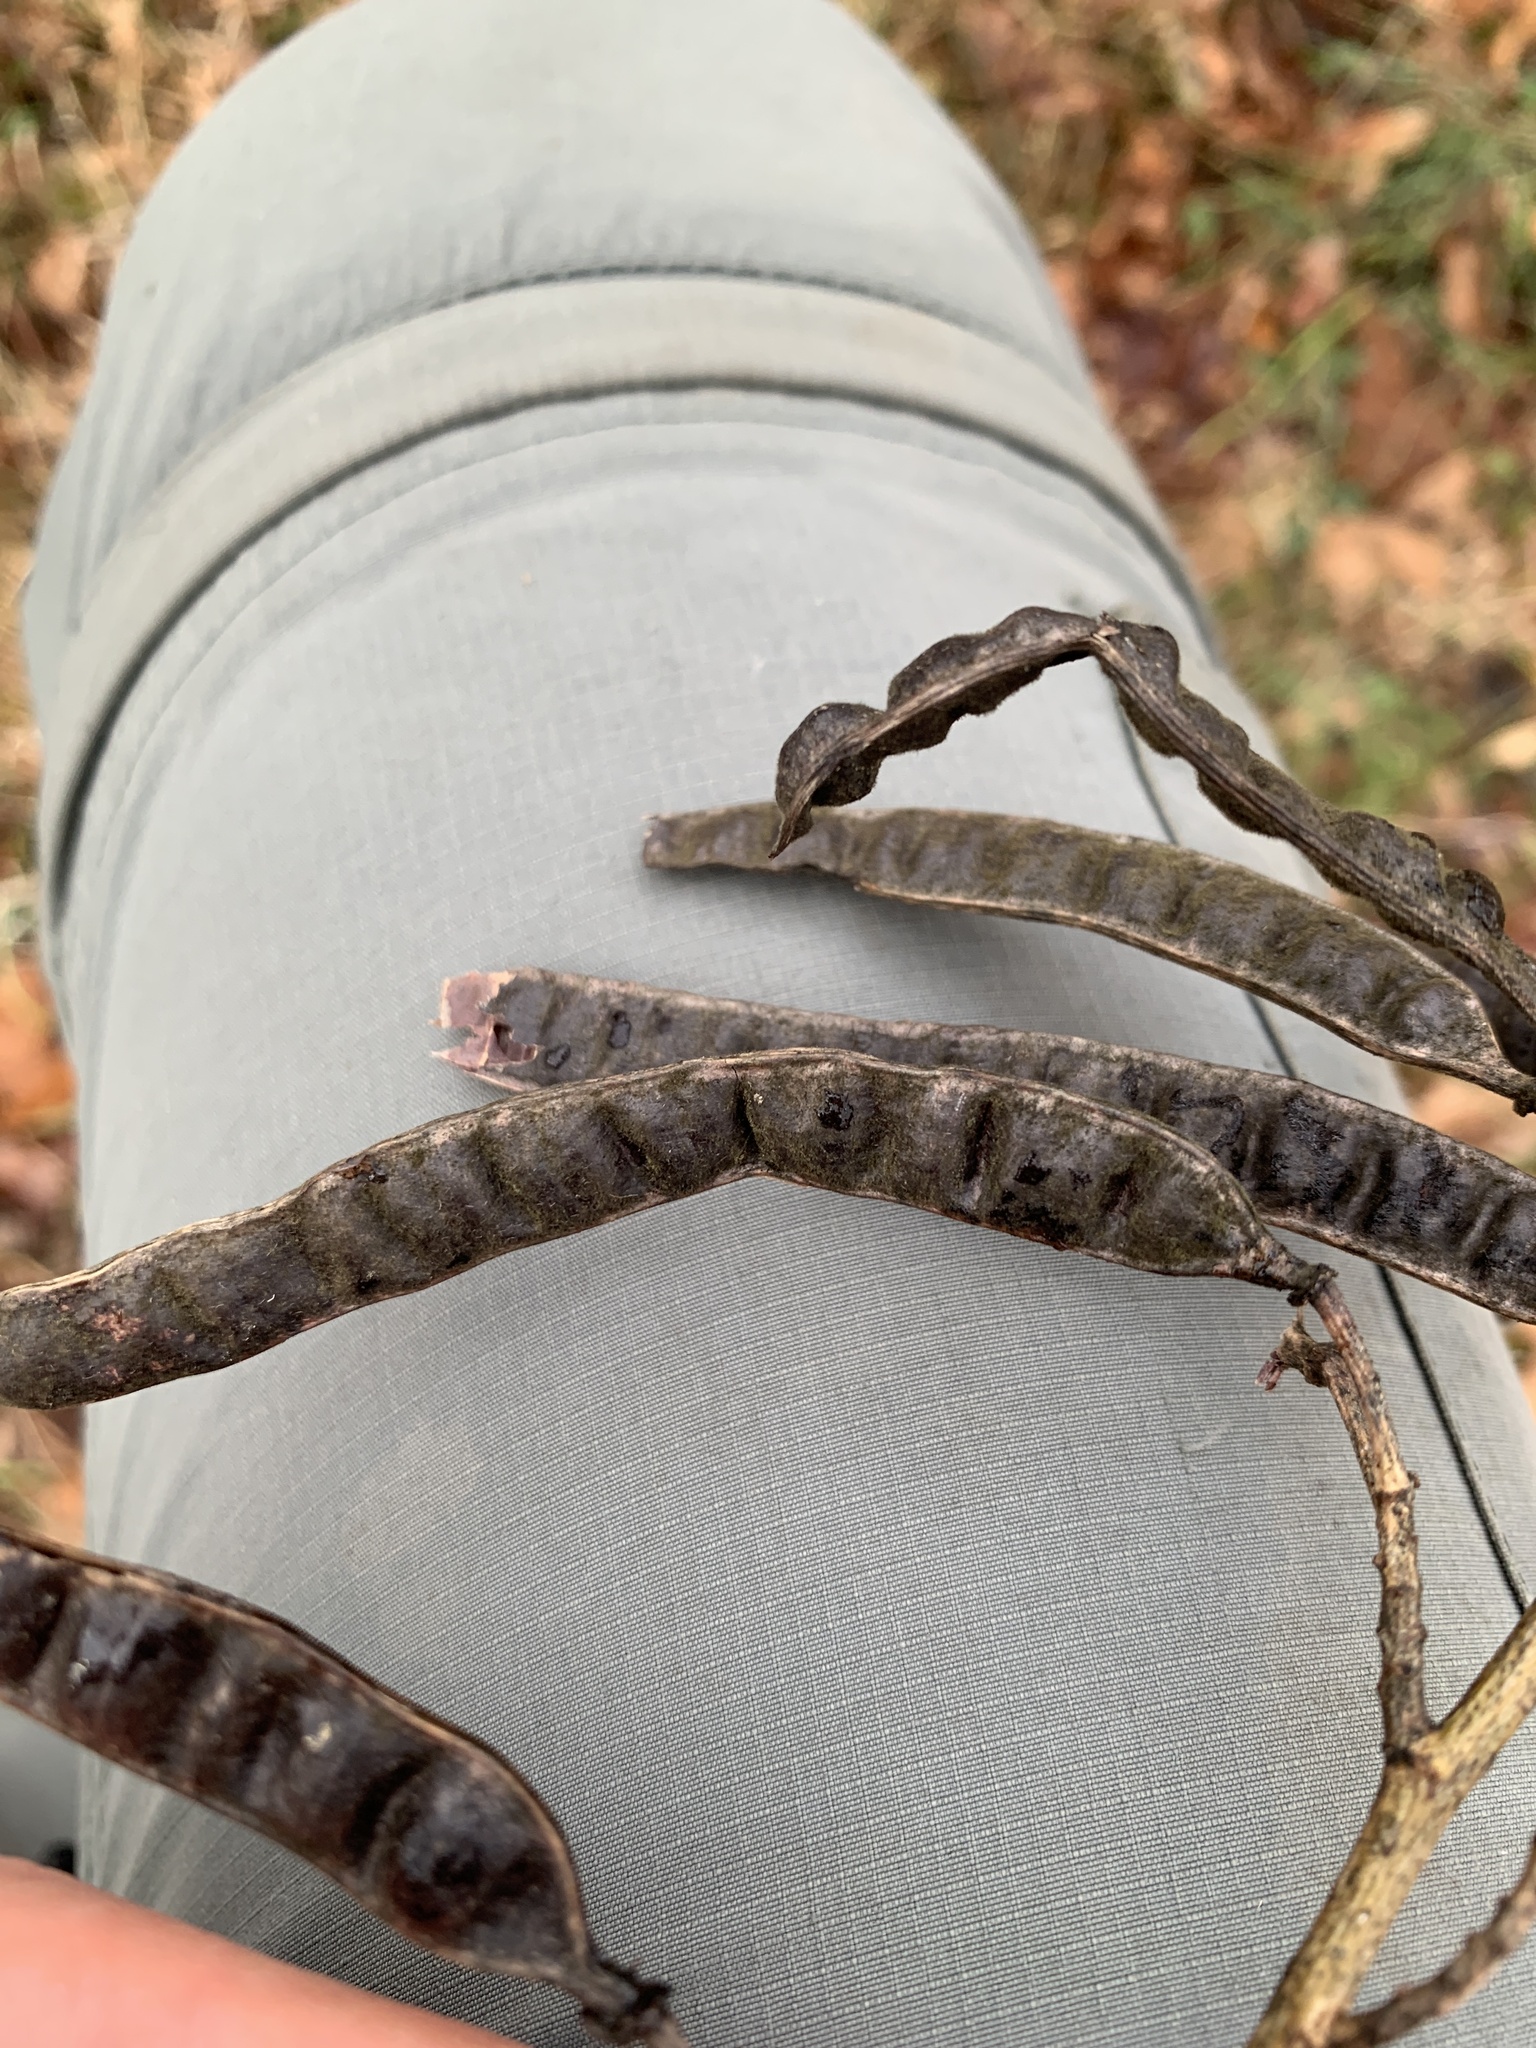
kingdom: Plantae
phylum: Tracheophyta
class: Magnoliopsida
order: Fabales
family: Fabaceae
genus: Senna
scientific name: Senna marilandica
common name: American senna
